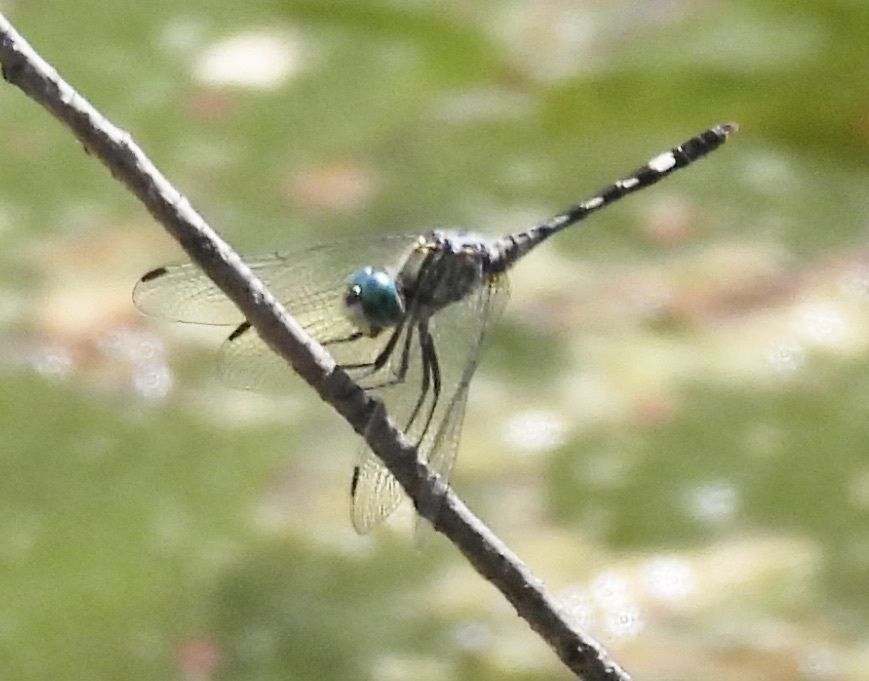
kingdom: Animalia
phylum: Arthropoda
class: Insecta
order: Odonata
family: Libellulidae
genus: Micrathyria
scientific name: Micrathyria hagenii
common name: Thornbush dasher
